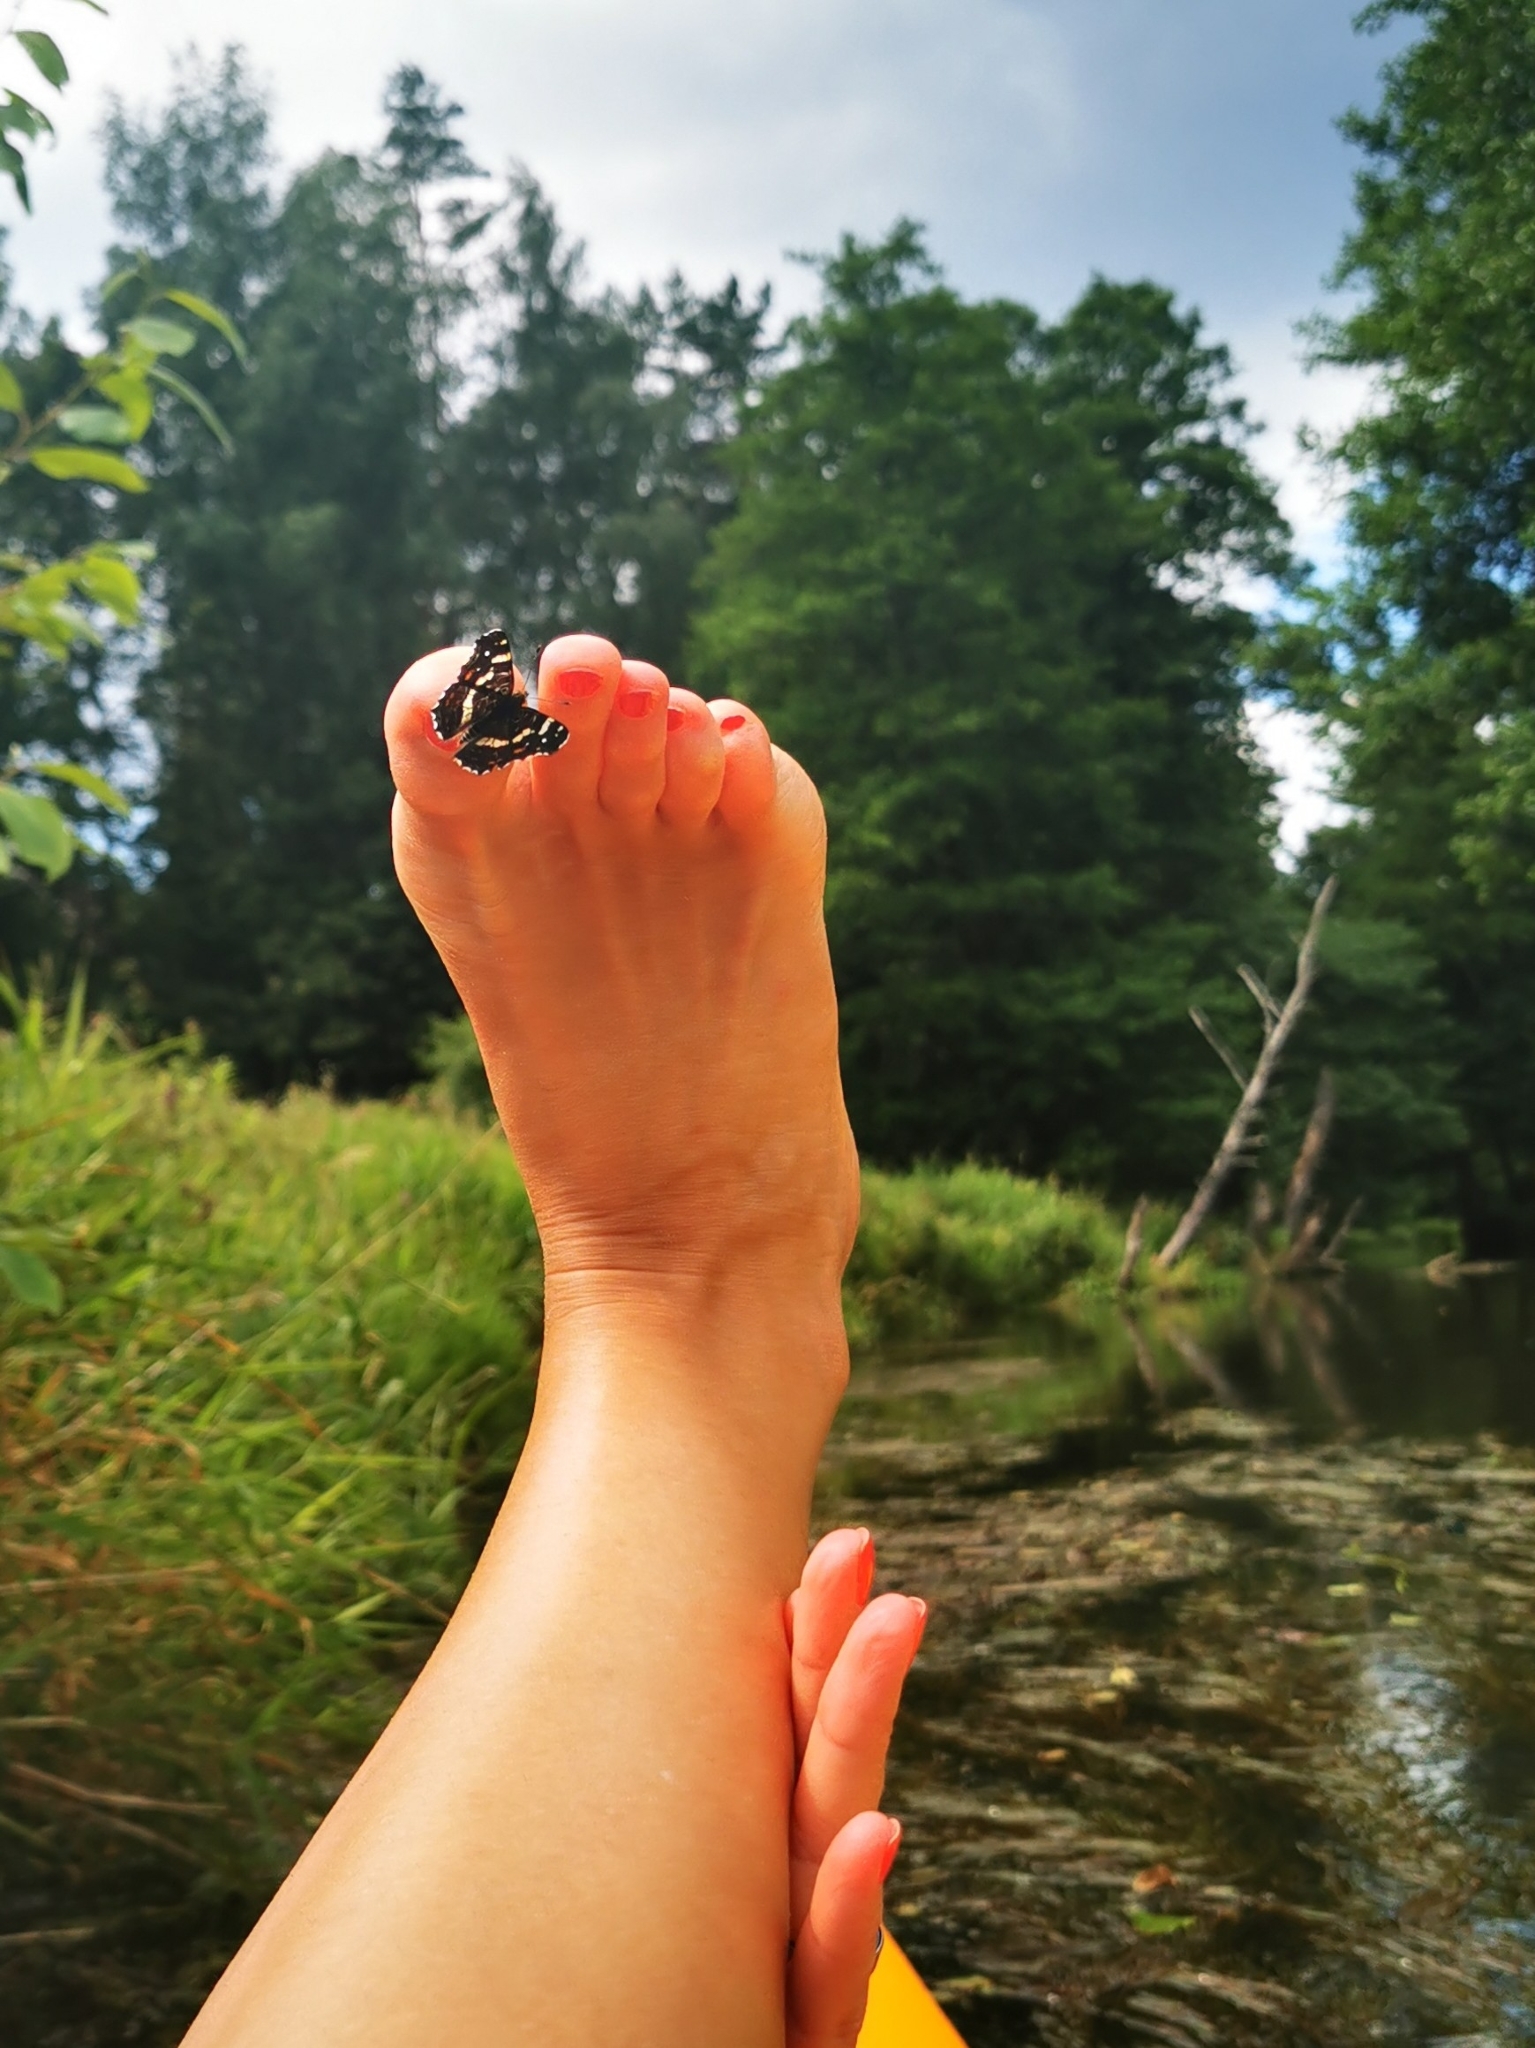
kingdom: Animalia
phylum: Arthropoda
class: Insecta
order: Lepidoptera
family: Nymphalidae
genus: Araschnia
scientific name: Araschnia levana
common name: Map butterfly
